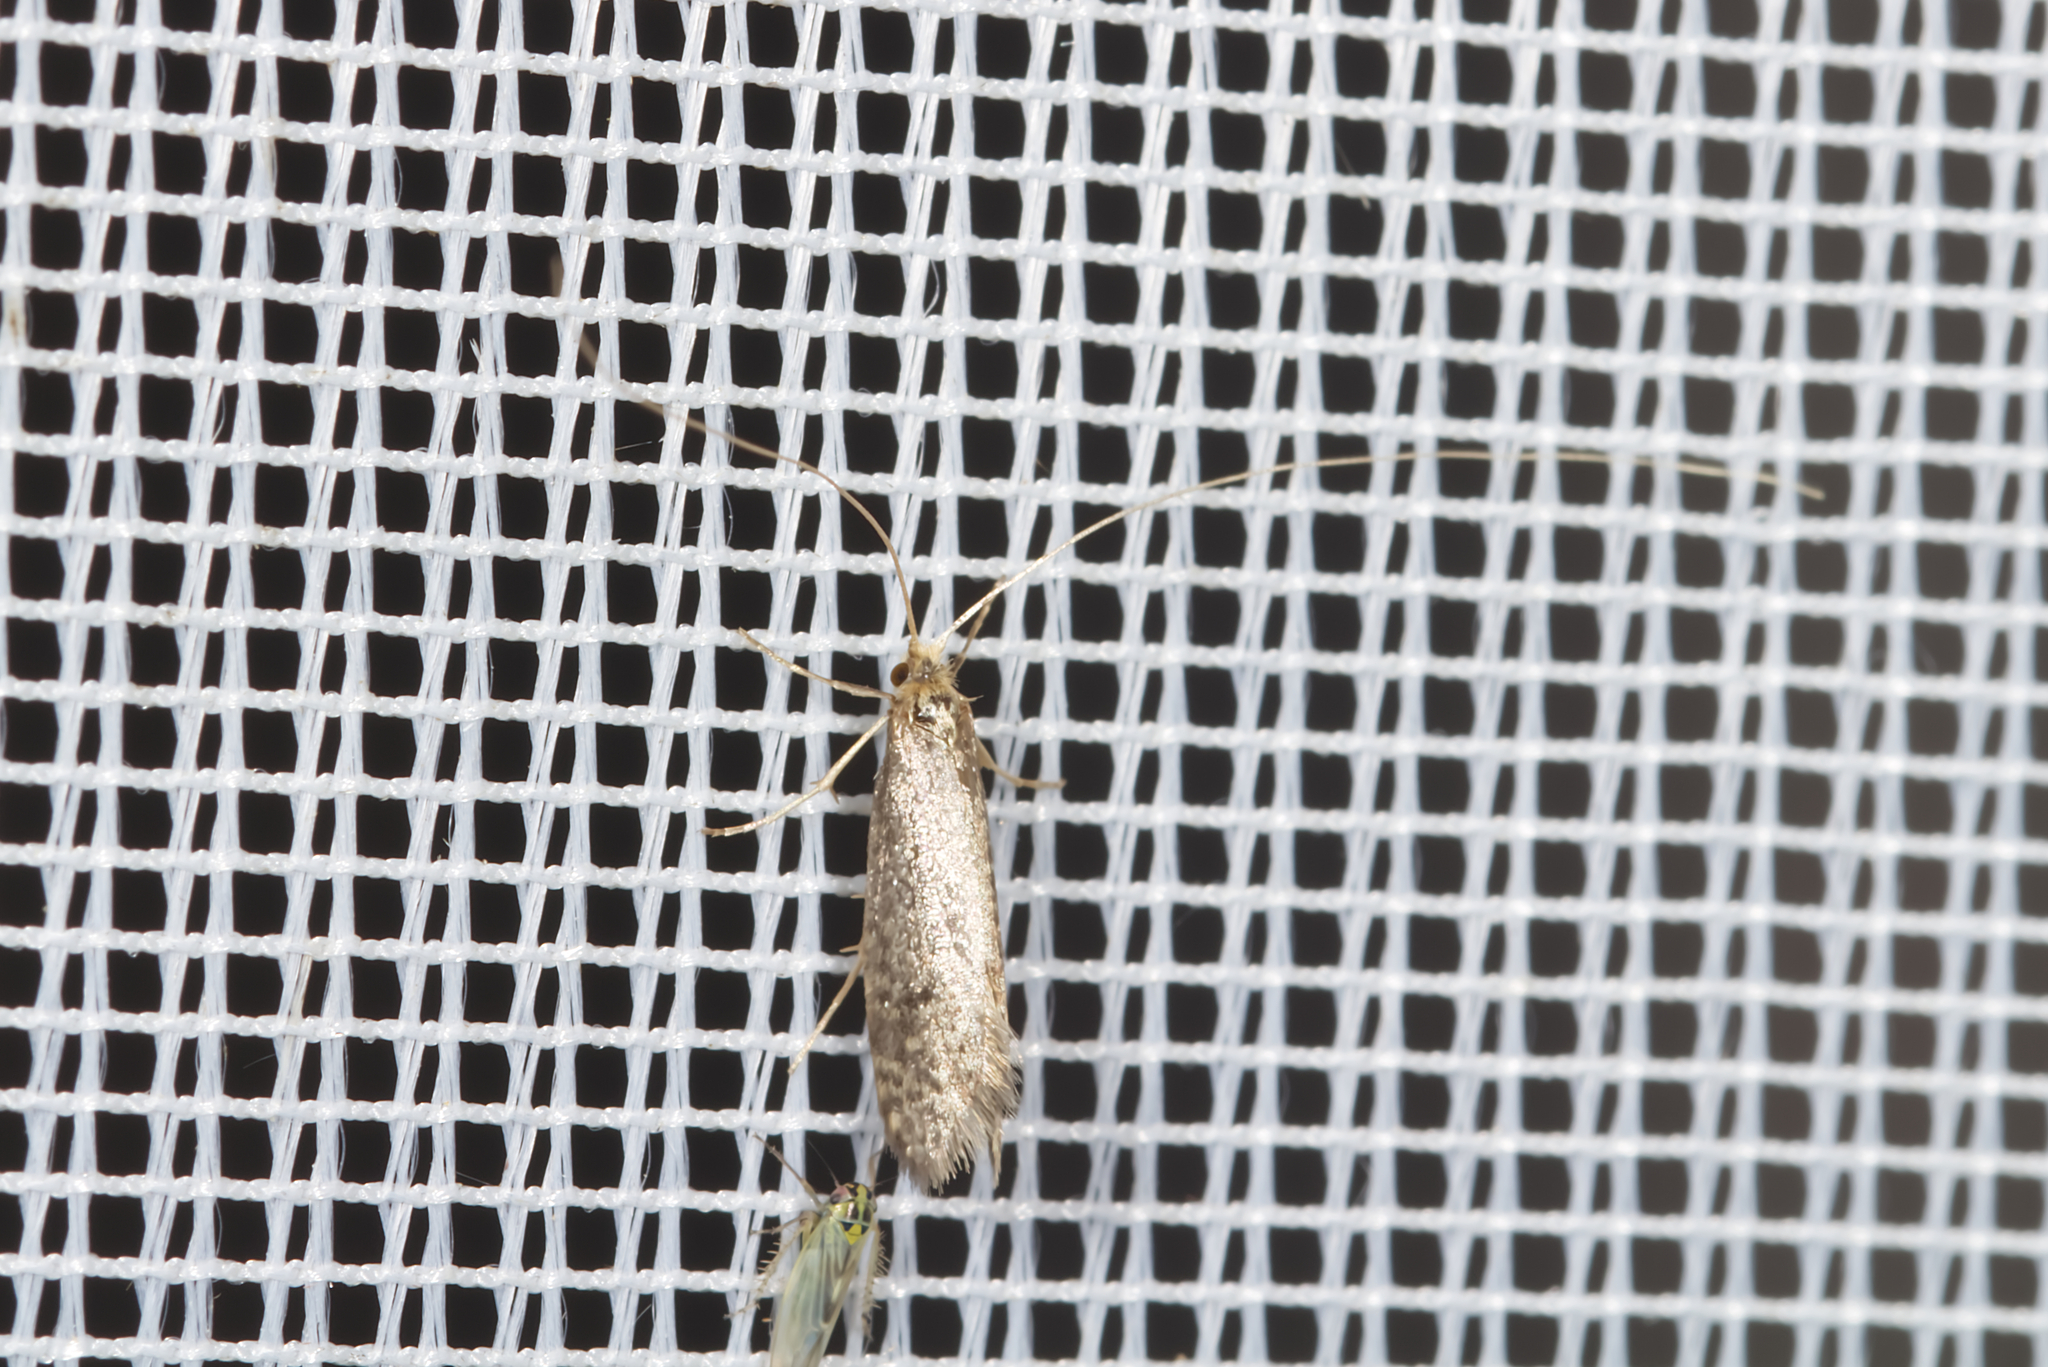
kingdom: Animalia
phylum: Arthropoda
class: Insecta
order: Lepidoptera
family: Adelidae
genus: Nematopogon
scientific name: Nematopogon robertella
